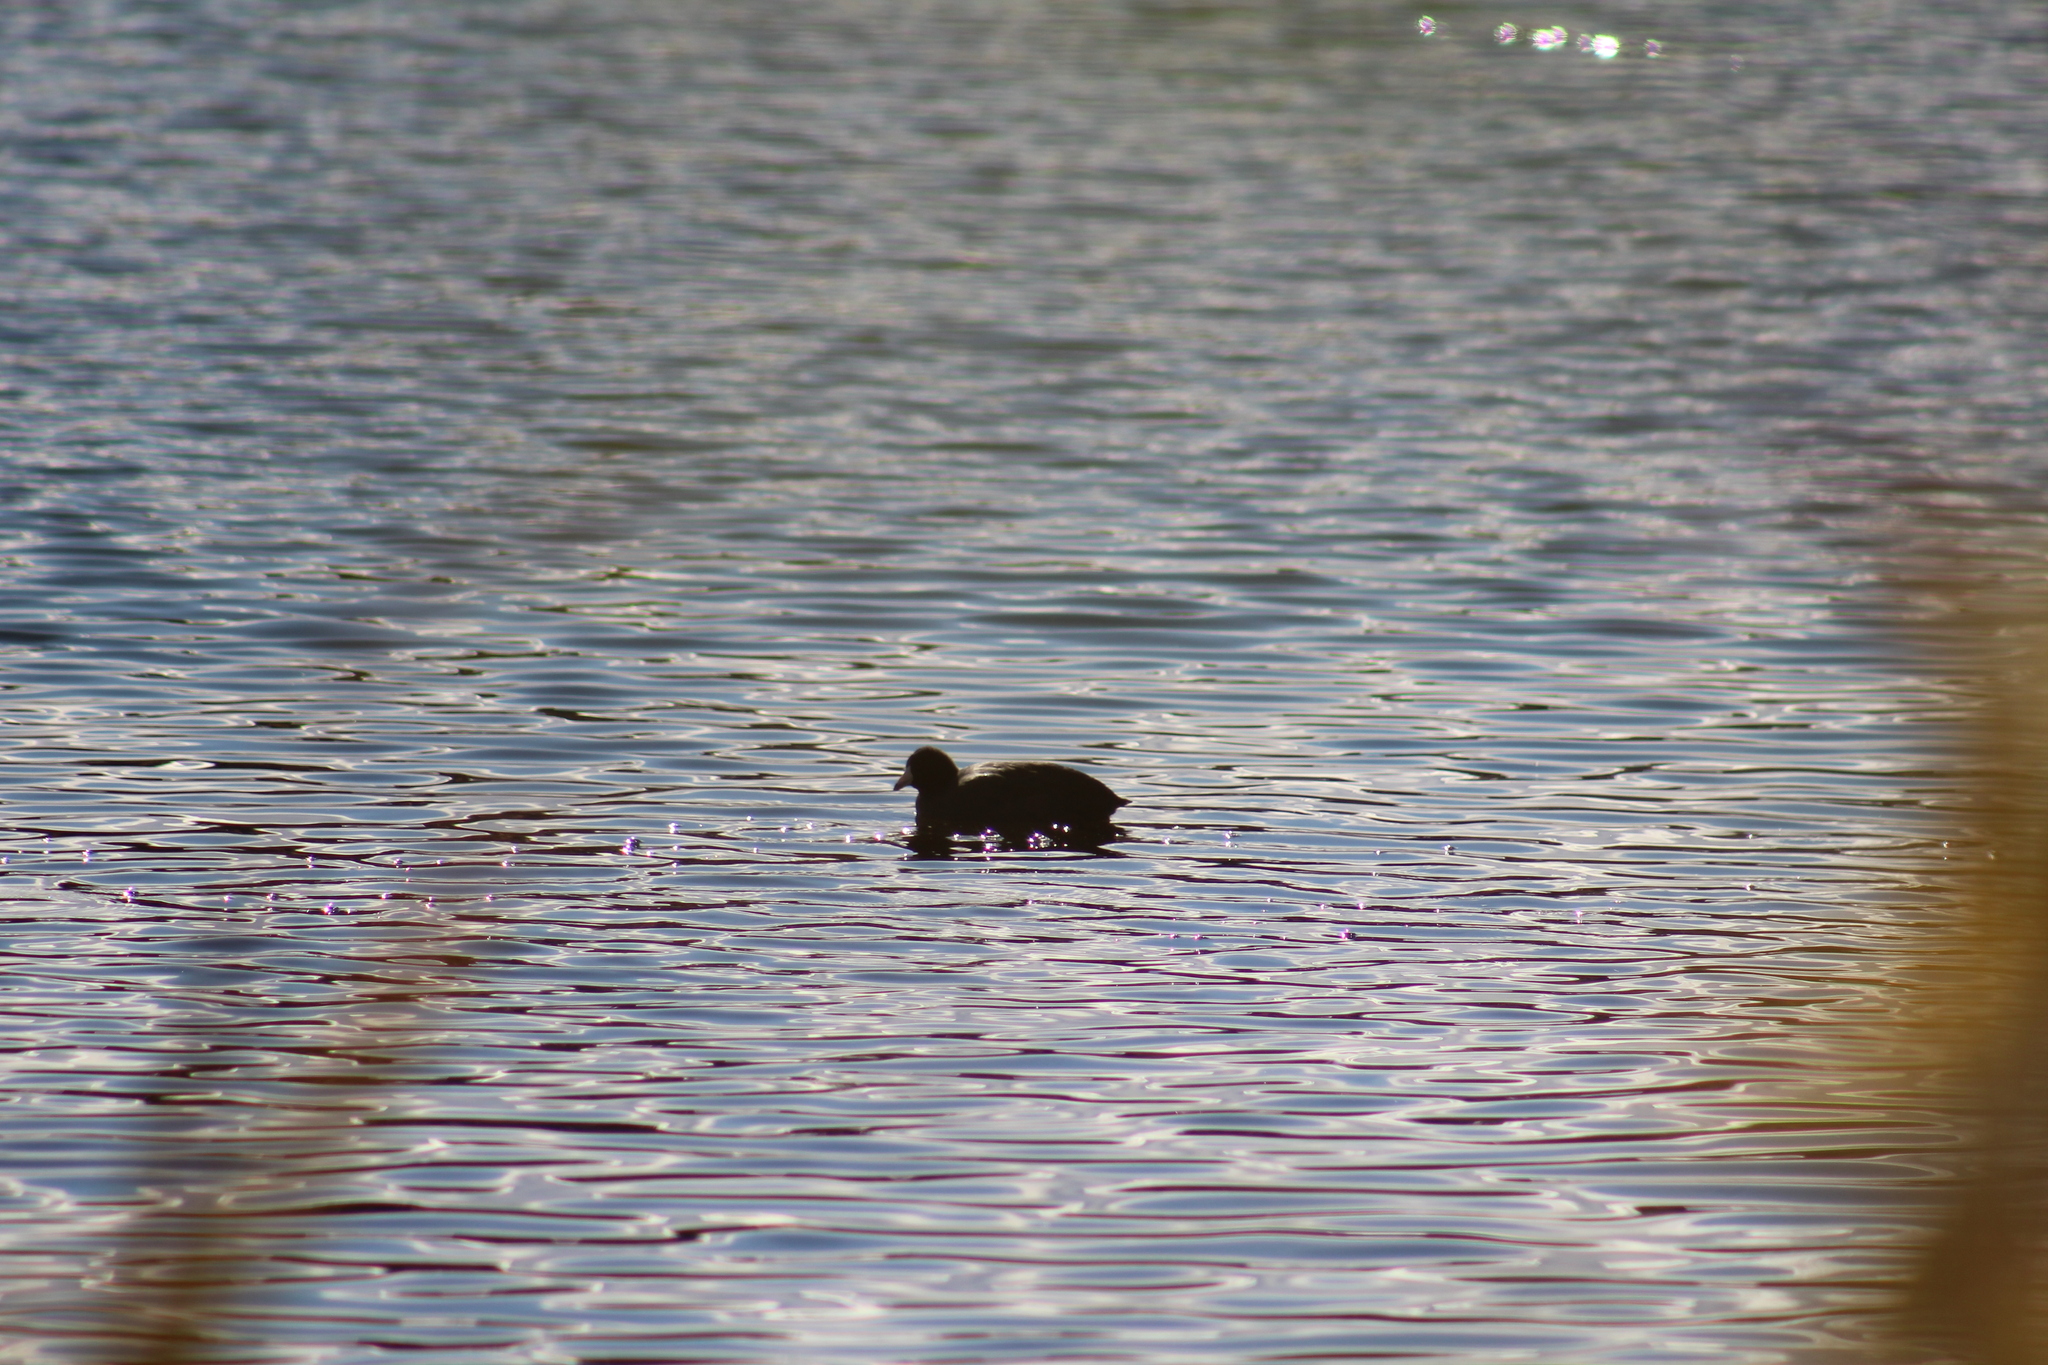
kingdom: Animalia
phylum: Chordata
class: Aves
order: Gruiformes
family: Rallidae
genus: Fulica
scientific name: Fulica americana
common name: American coot
